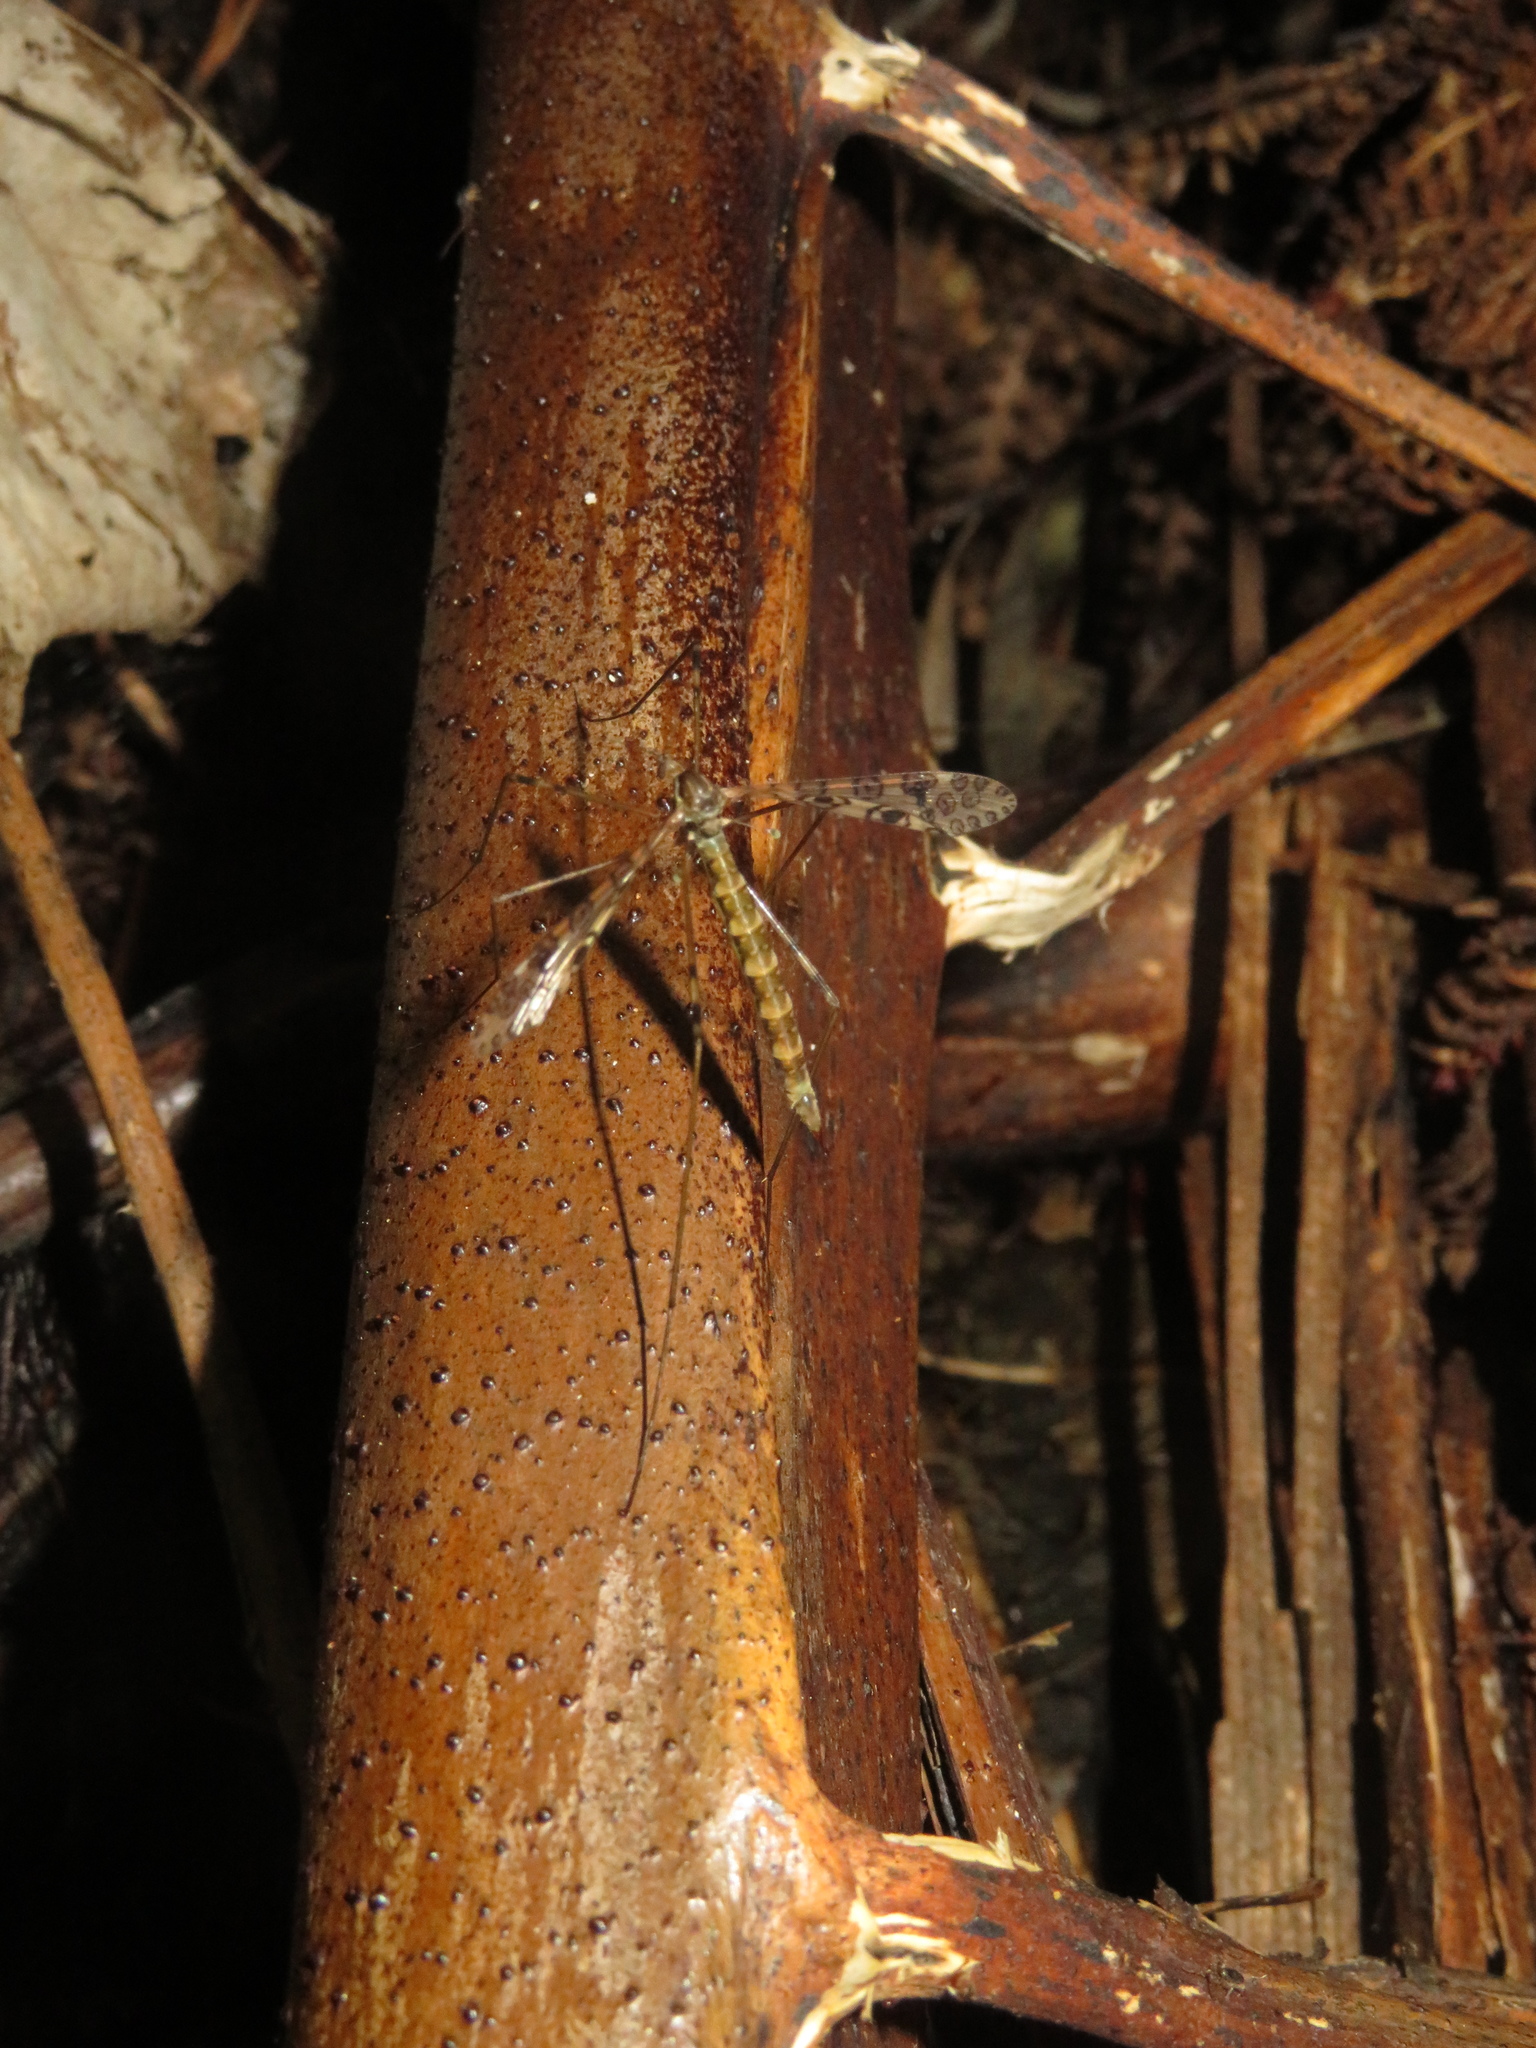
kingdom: Animalia
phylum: Arthropoda
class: Insecta
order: Diptera
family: Limoniidae
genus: Austrolimnophila
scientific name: Austrolimnophila argus
